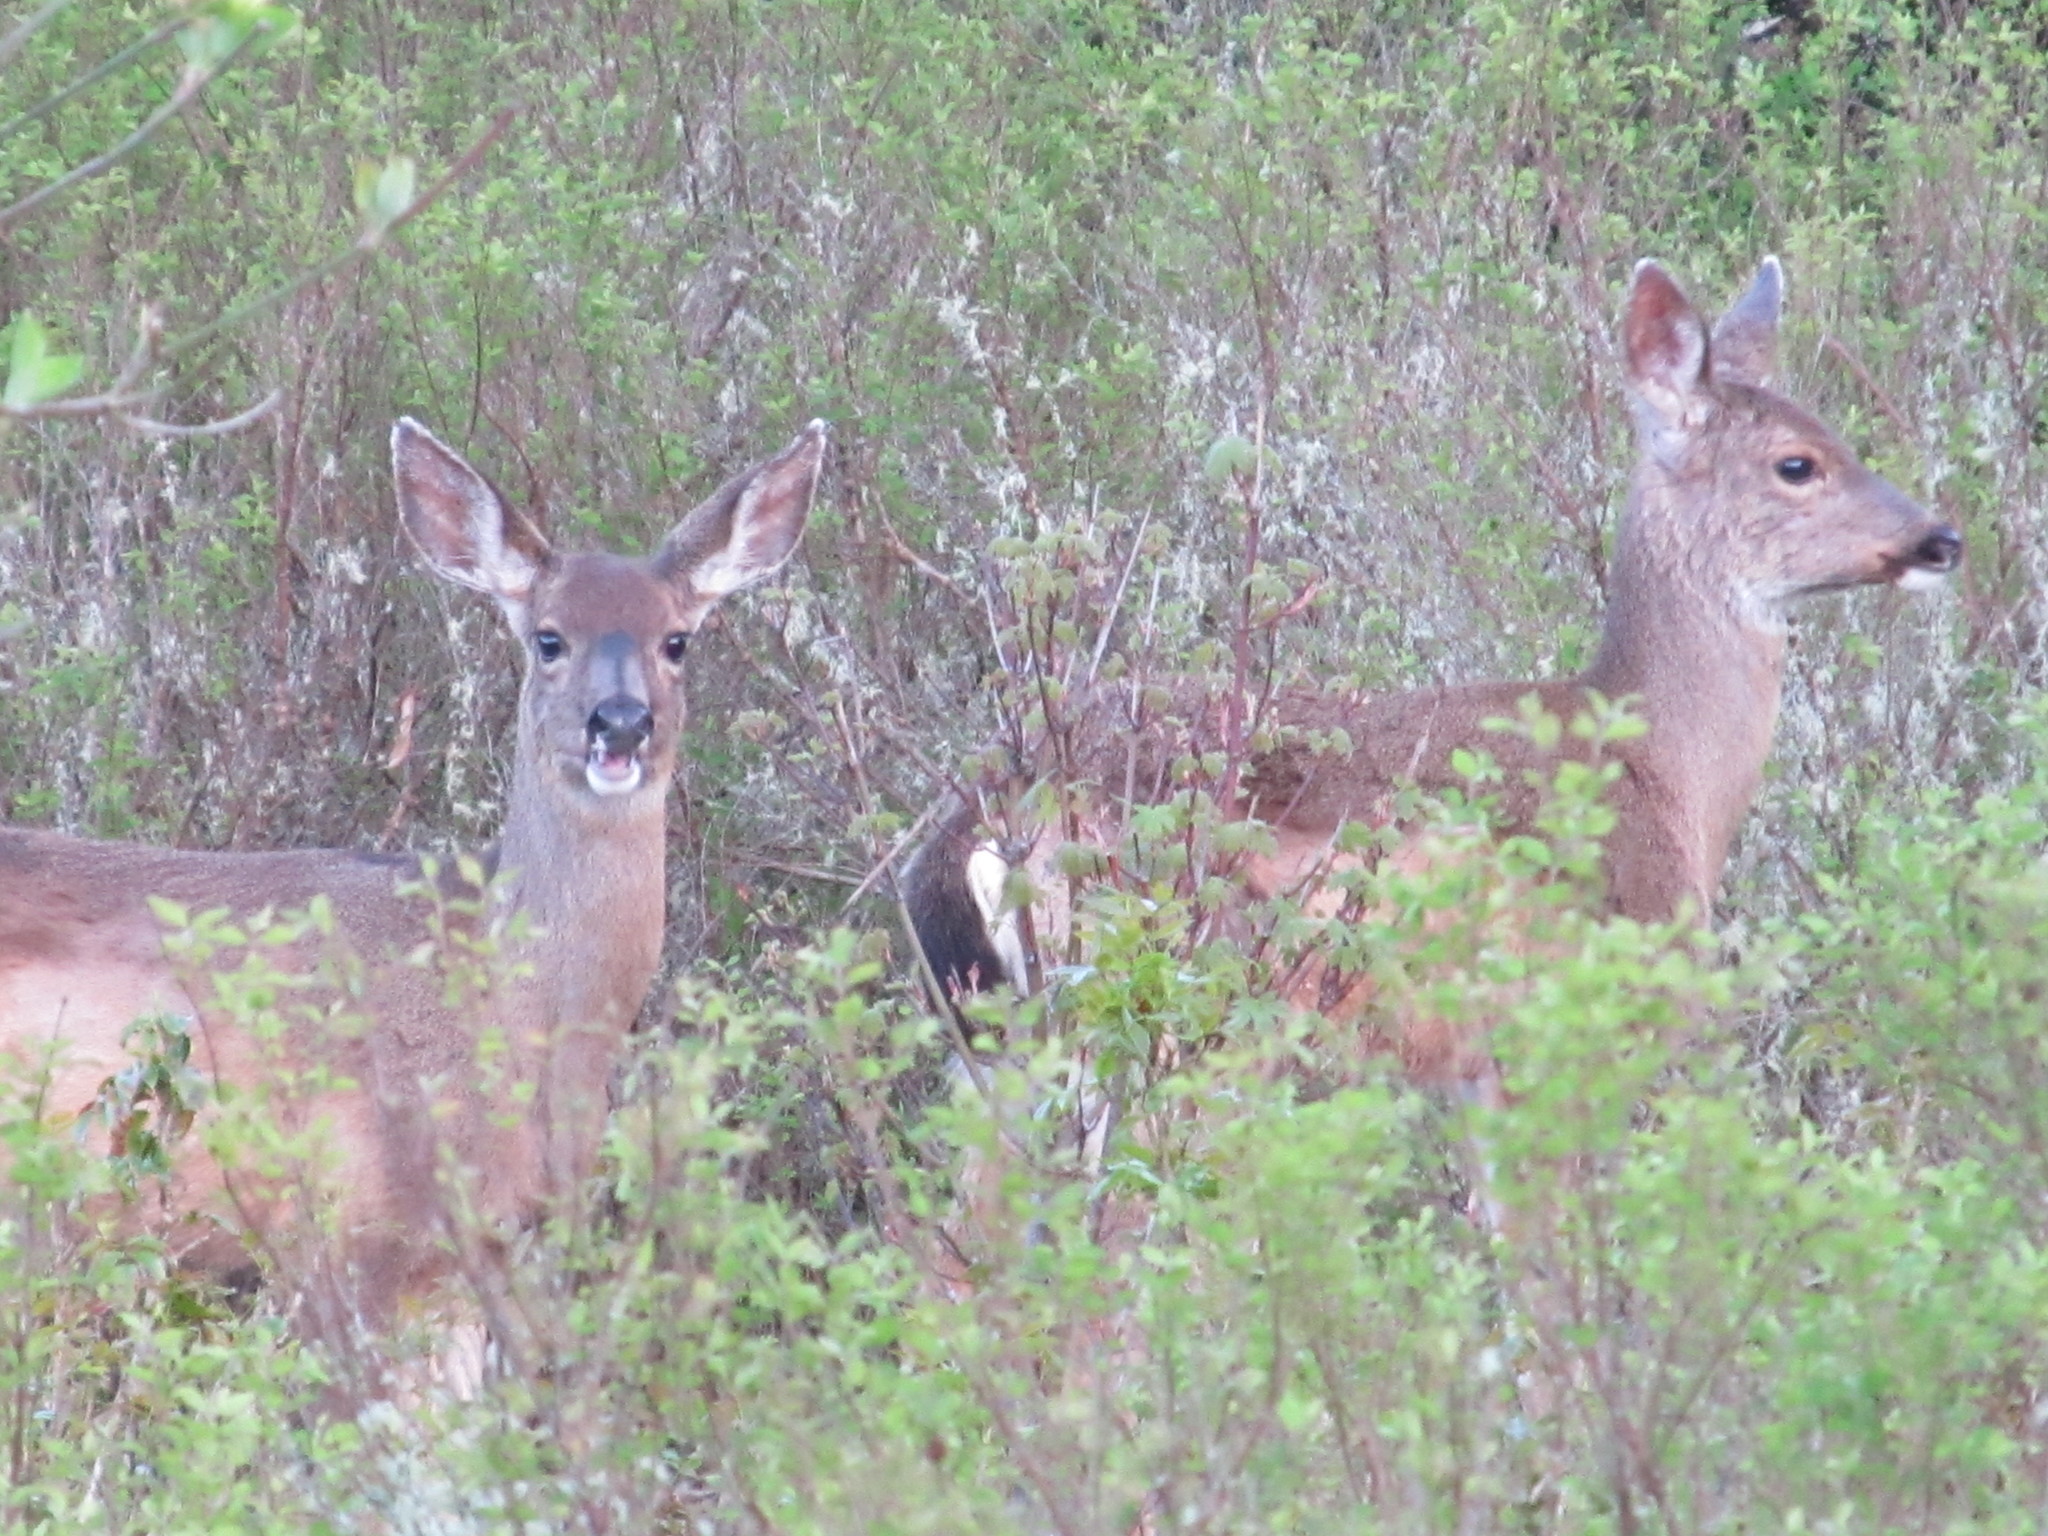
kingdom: Animalia
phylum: Chordata
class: Mammalia
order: Artiodactyla
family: Cervidae
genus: Odocoileus
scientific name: Odocoileus hemionus
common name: Mule deer
